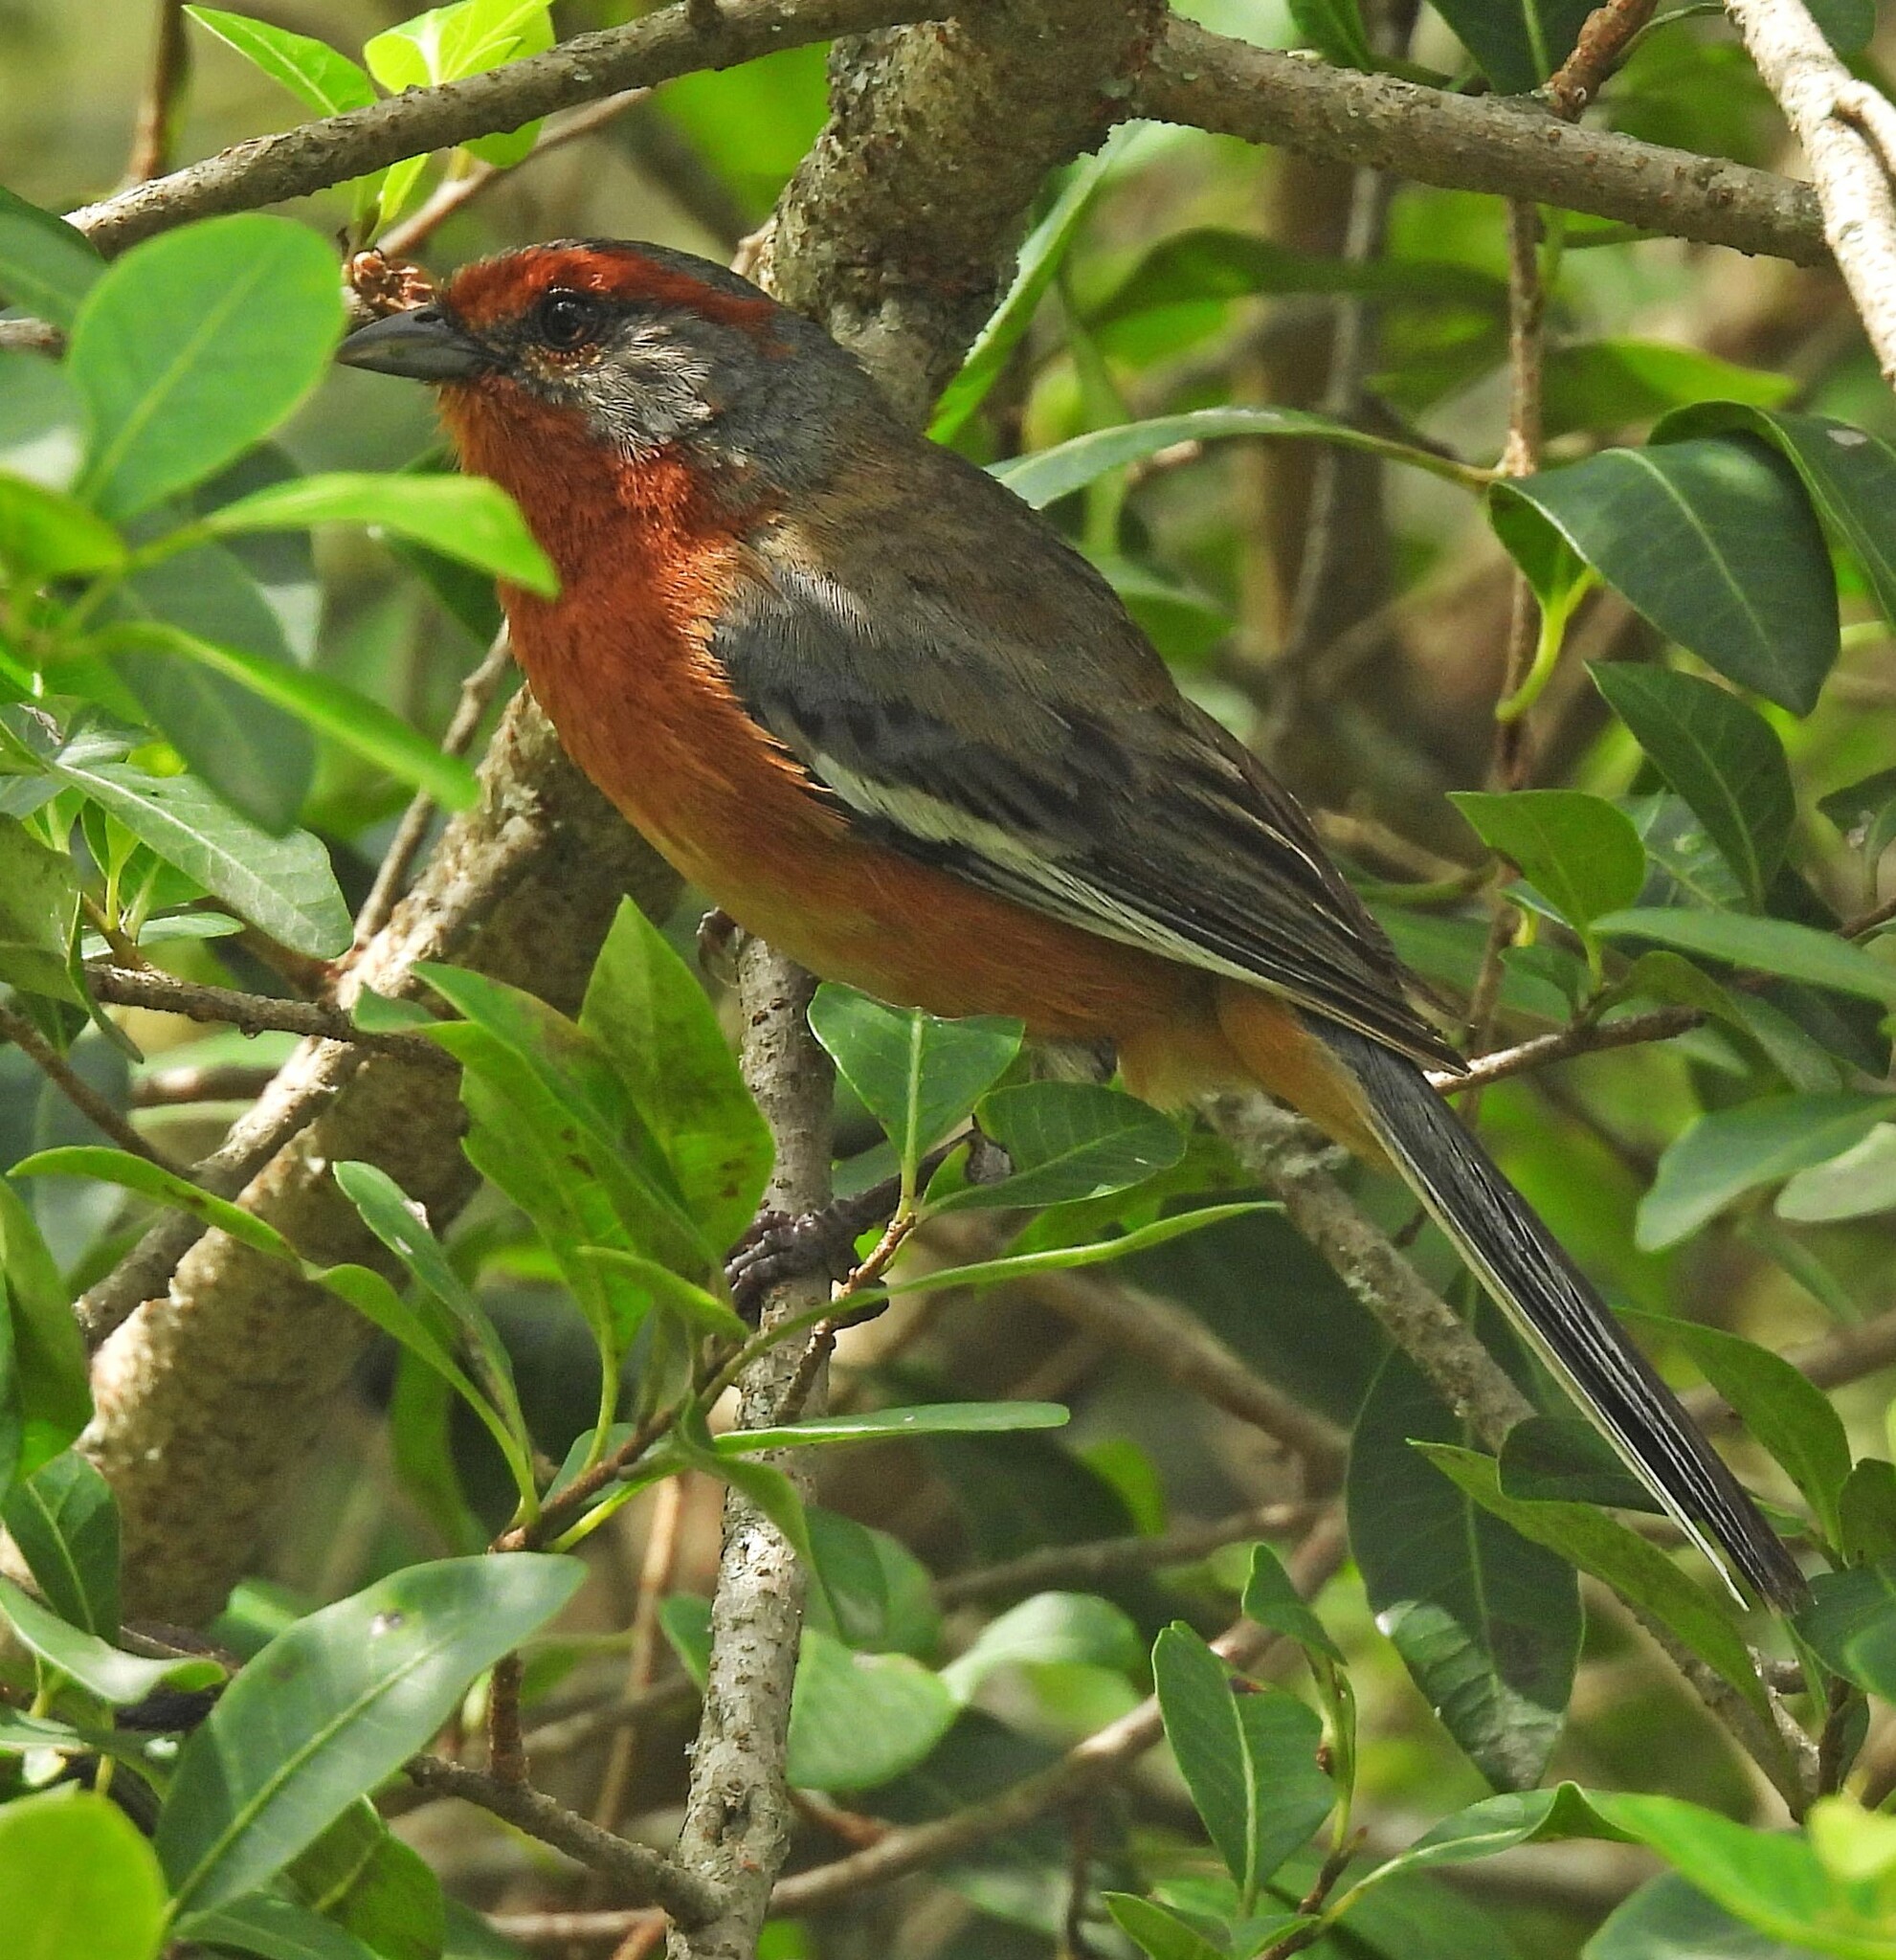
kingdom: Animalia
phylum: Chordata
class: Aves
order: Passeriformes
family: Thraupidae
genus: Microspingus
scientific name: Microspingus erythrophrys
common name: Rusty-browed warbling-finch
